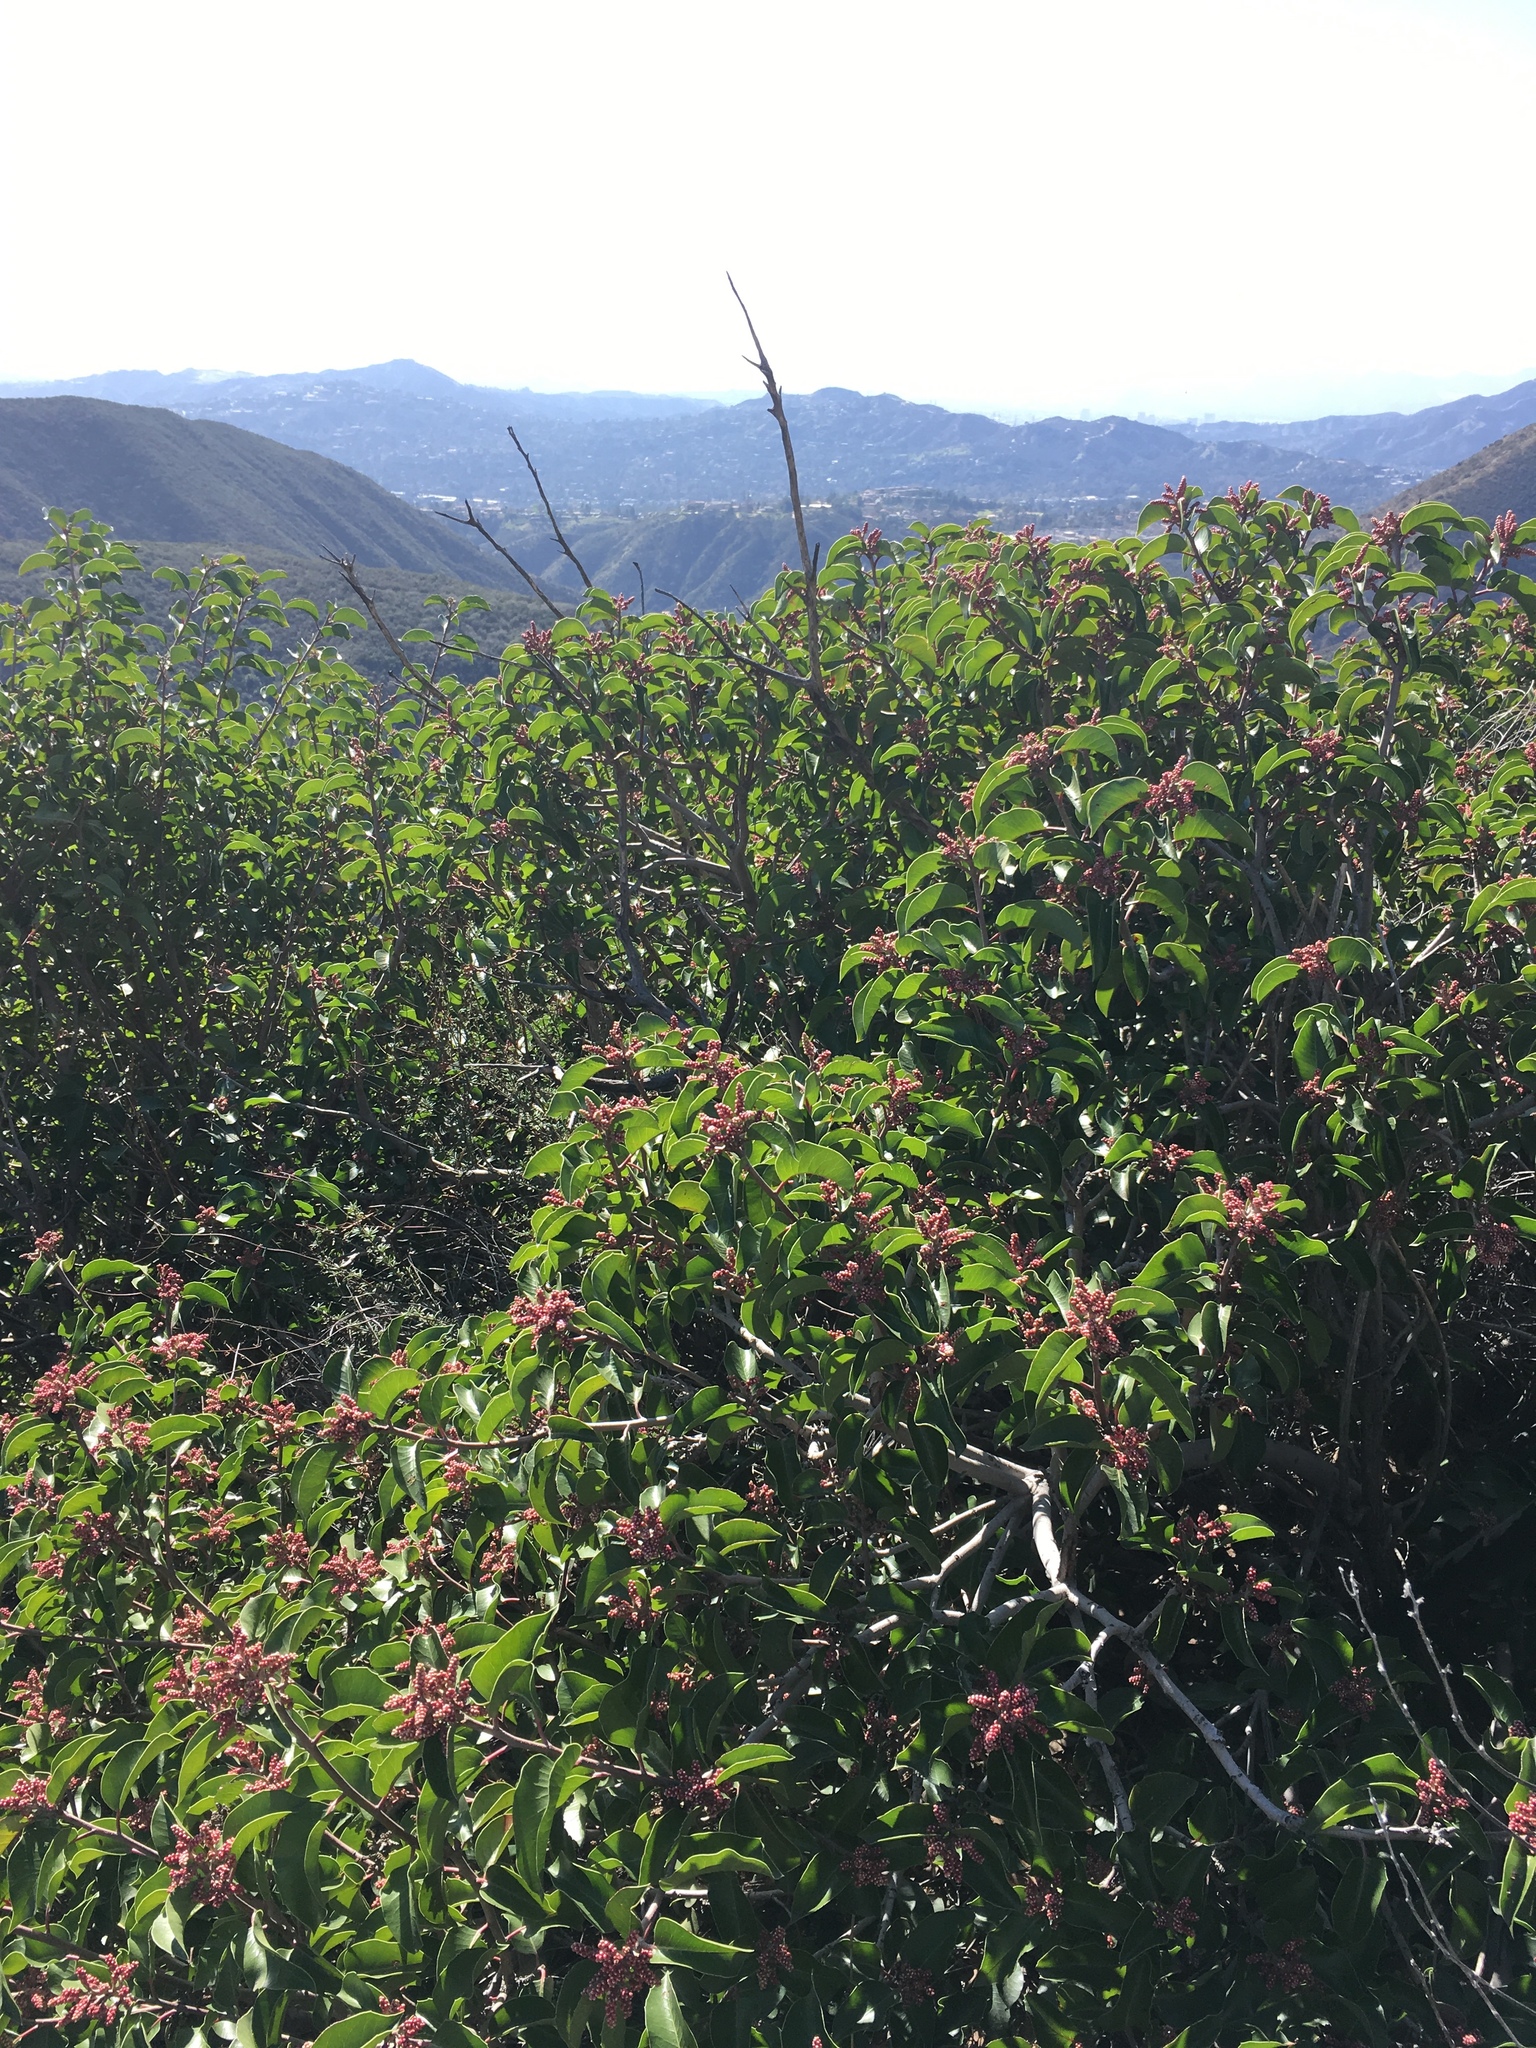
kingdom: Plantae
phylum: Tracheophyta
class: Magnoliopsida
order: Sapindales
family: Anacardiaceae
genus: Rhus
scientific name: Rhus ovata
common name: Sugar sumac
